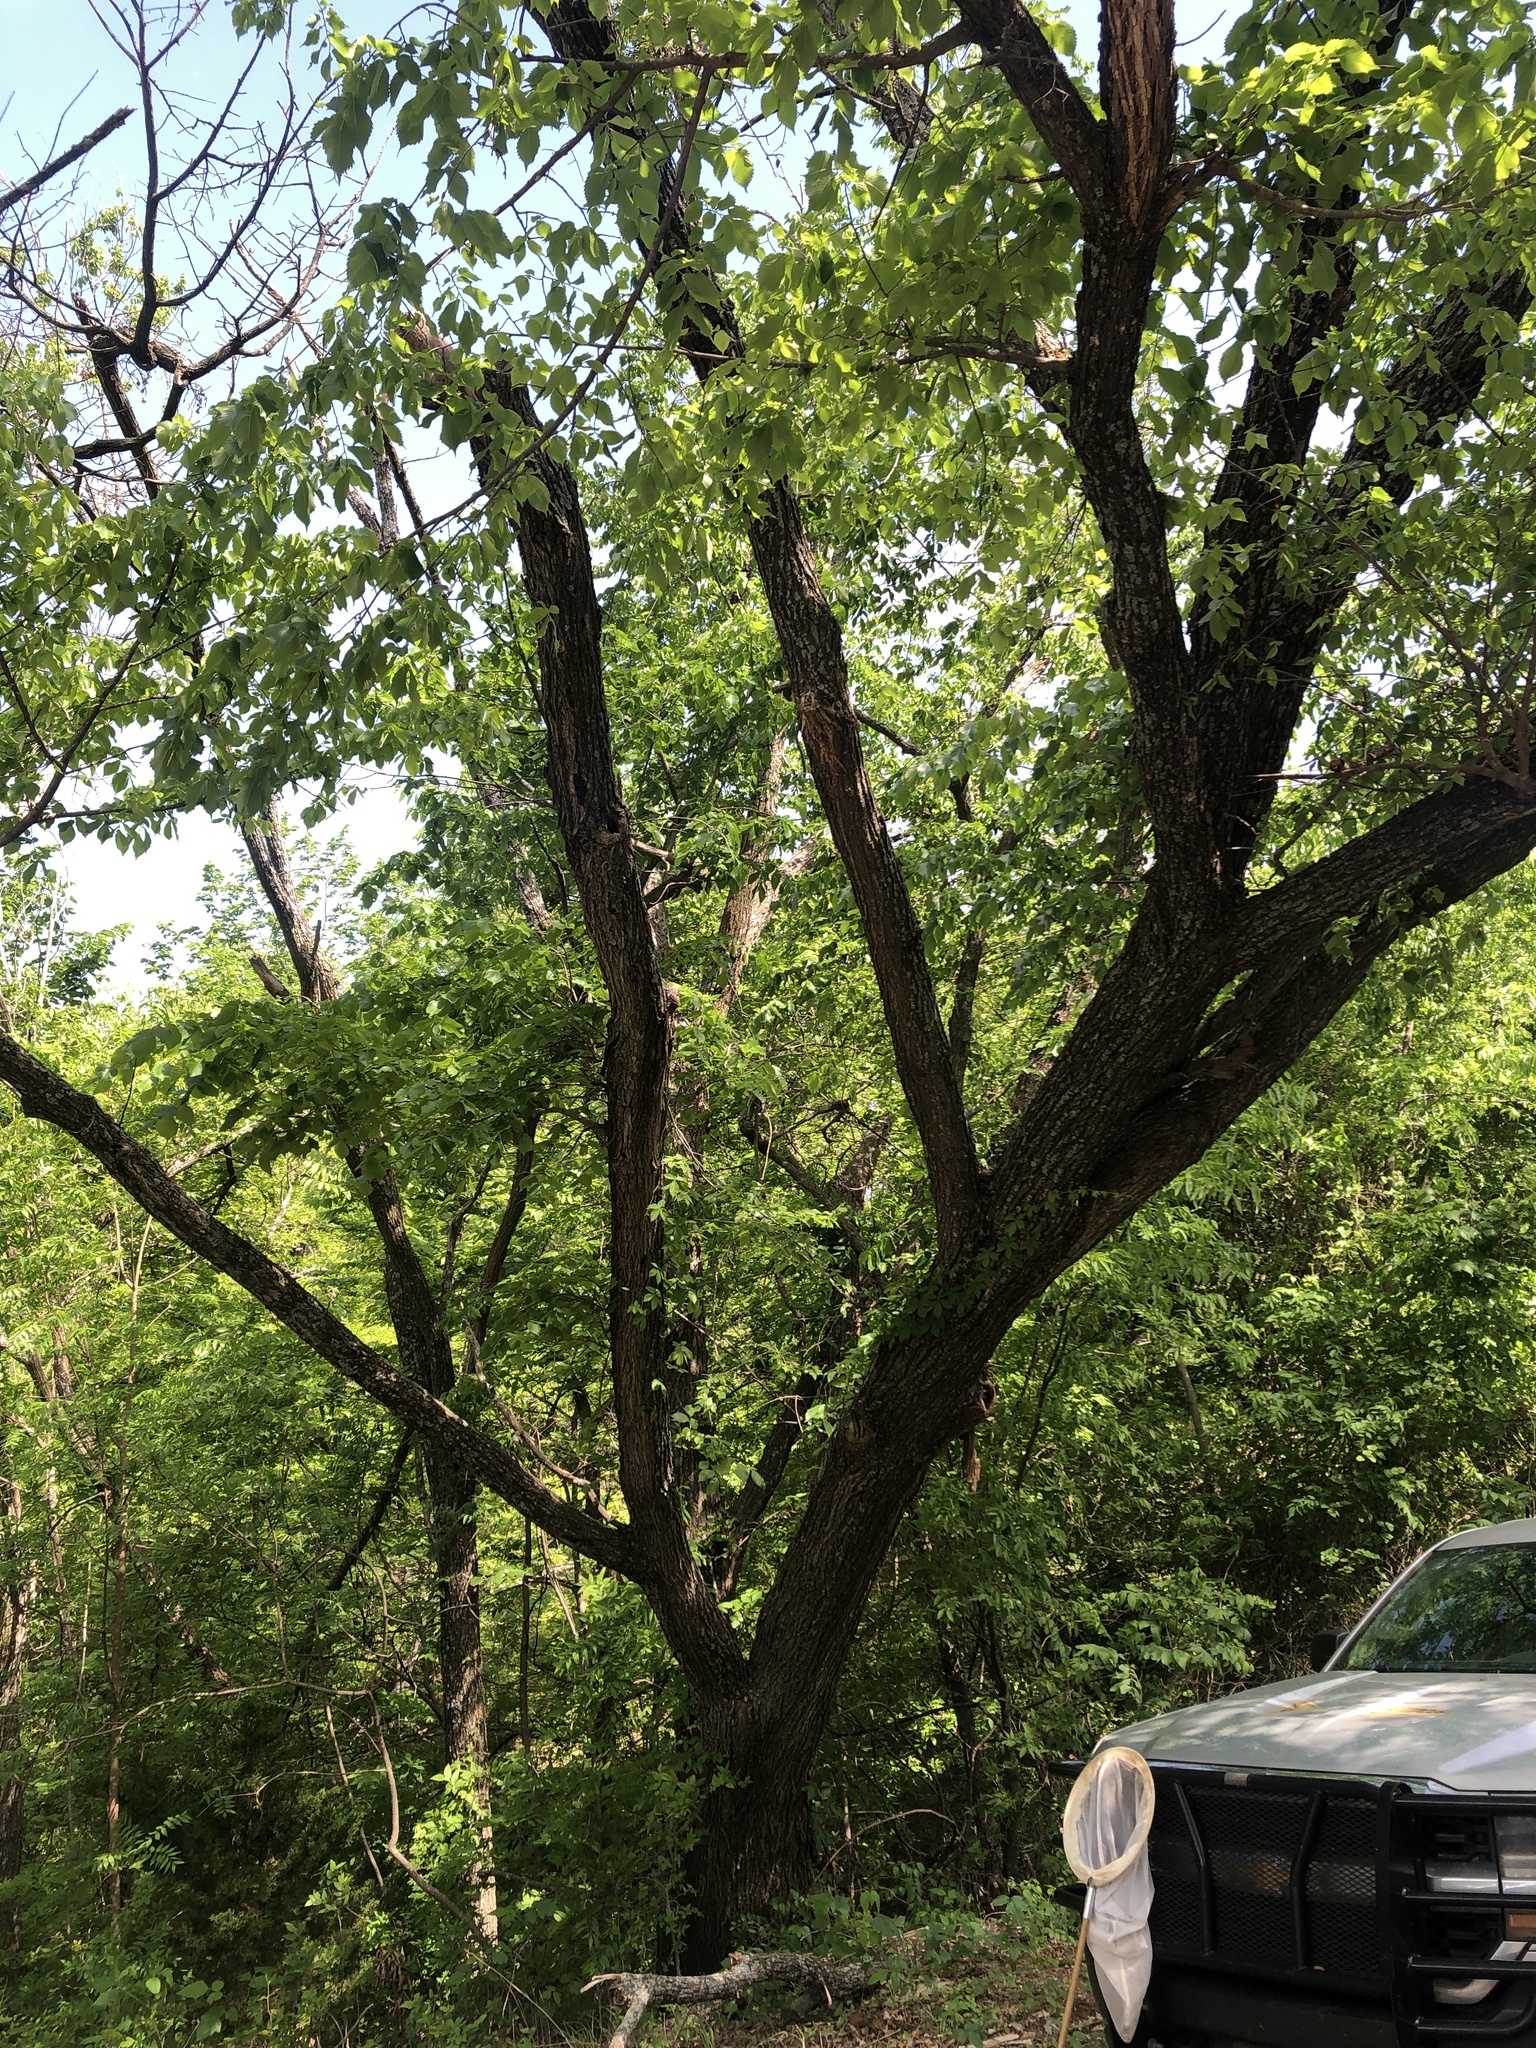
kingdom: Plantae
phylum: Tracheophyta
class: Magnoliopsida
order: Rosales
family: Ulmaceae
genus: Ulmus
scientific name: Ulmus americana
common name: American elm
